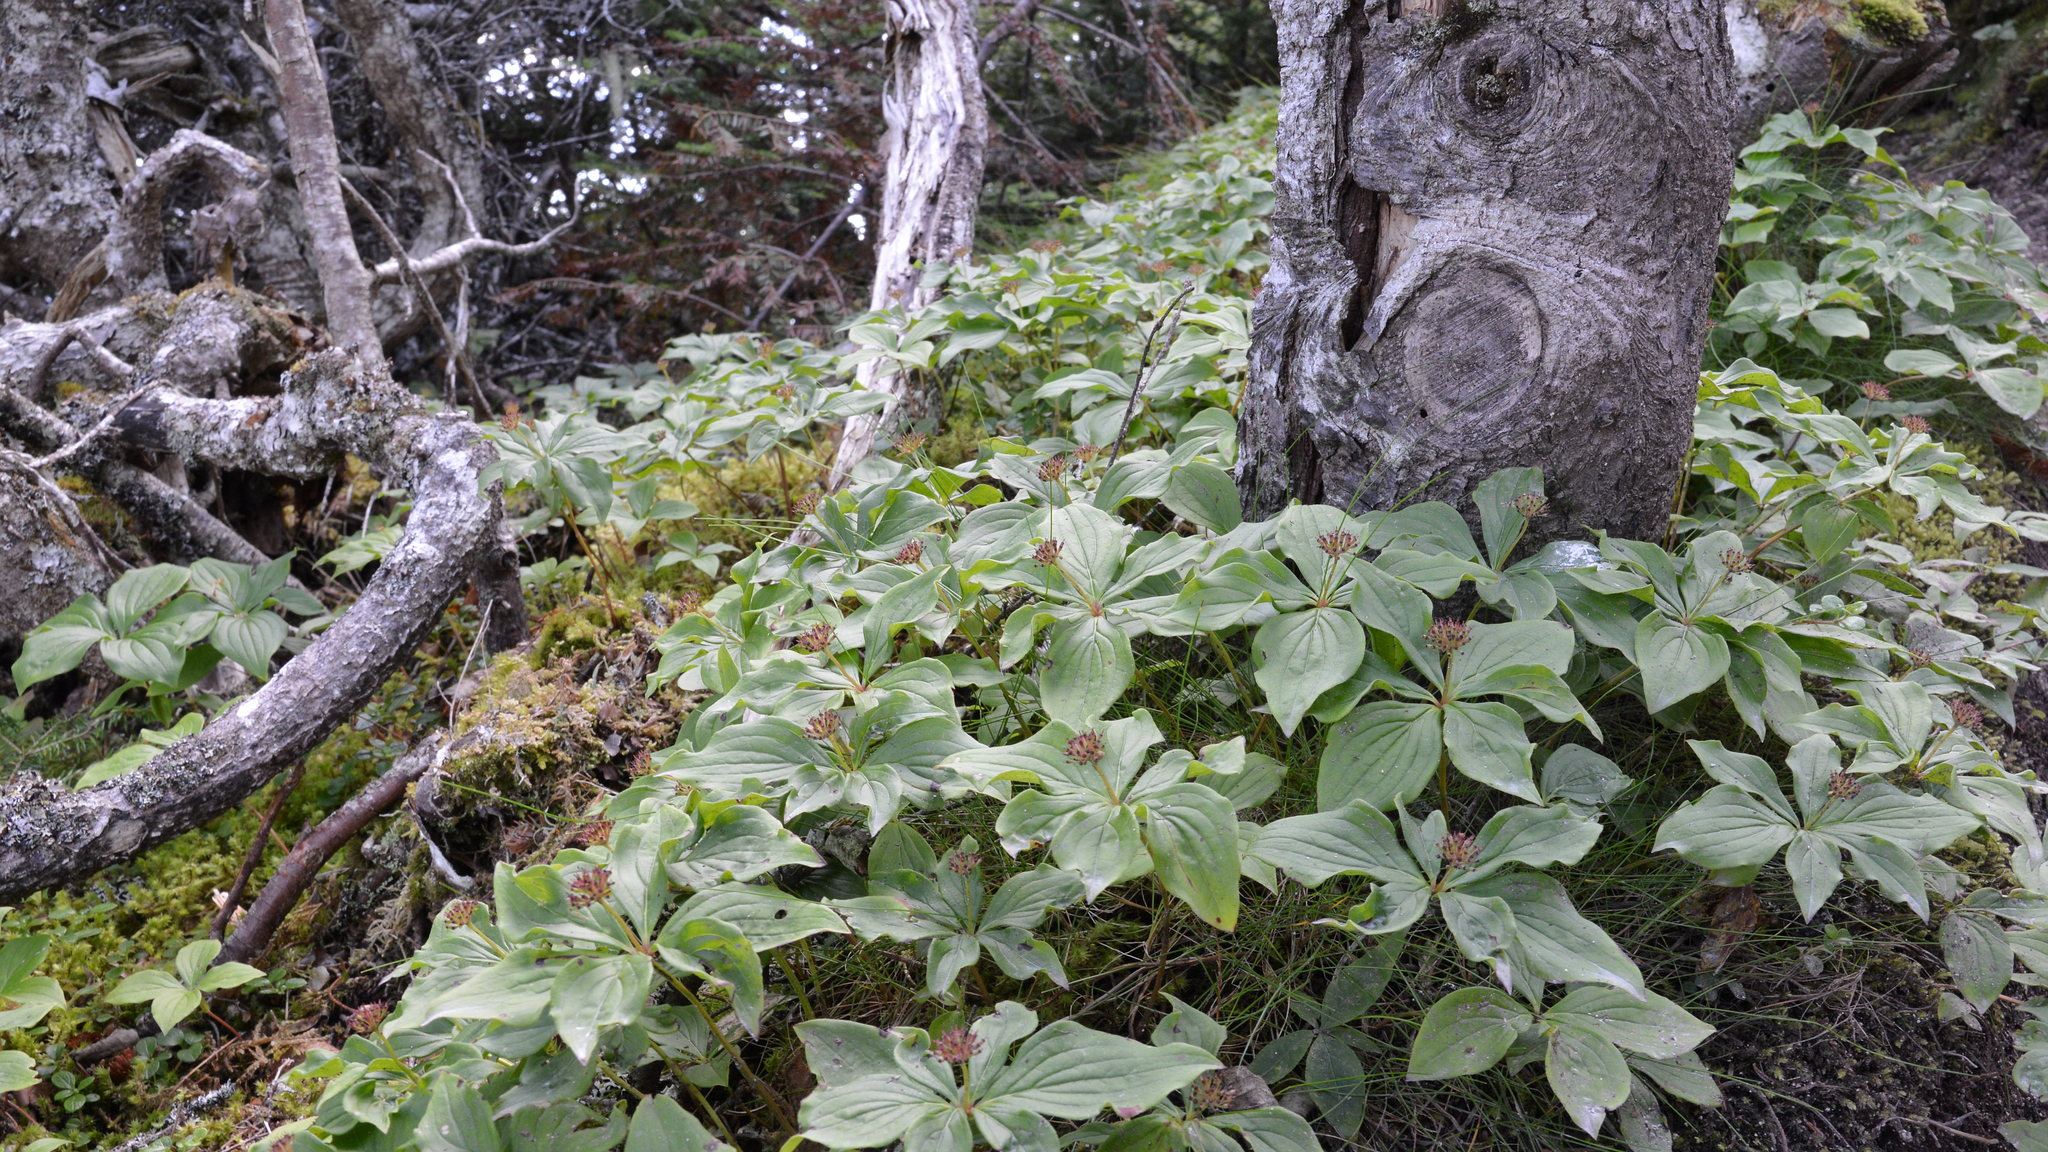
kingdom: Plantae
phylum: Tracheophyta
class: Magnoliopsida
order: Cornales
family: Cornaceae
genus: Cornus
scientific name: Cornus canadensis
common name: Creeping dogwood
